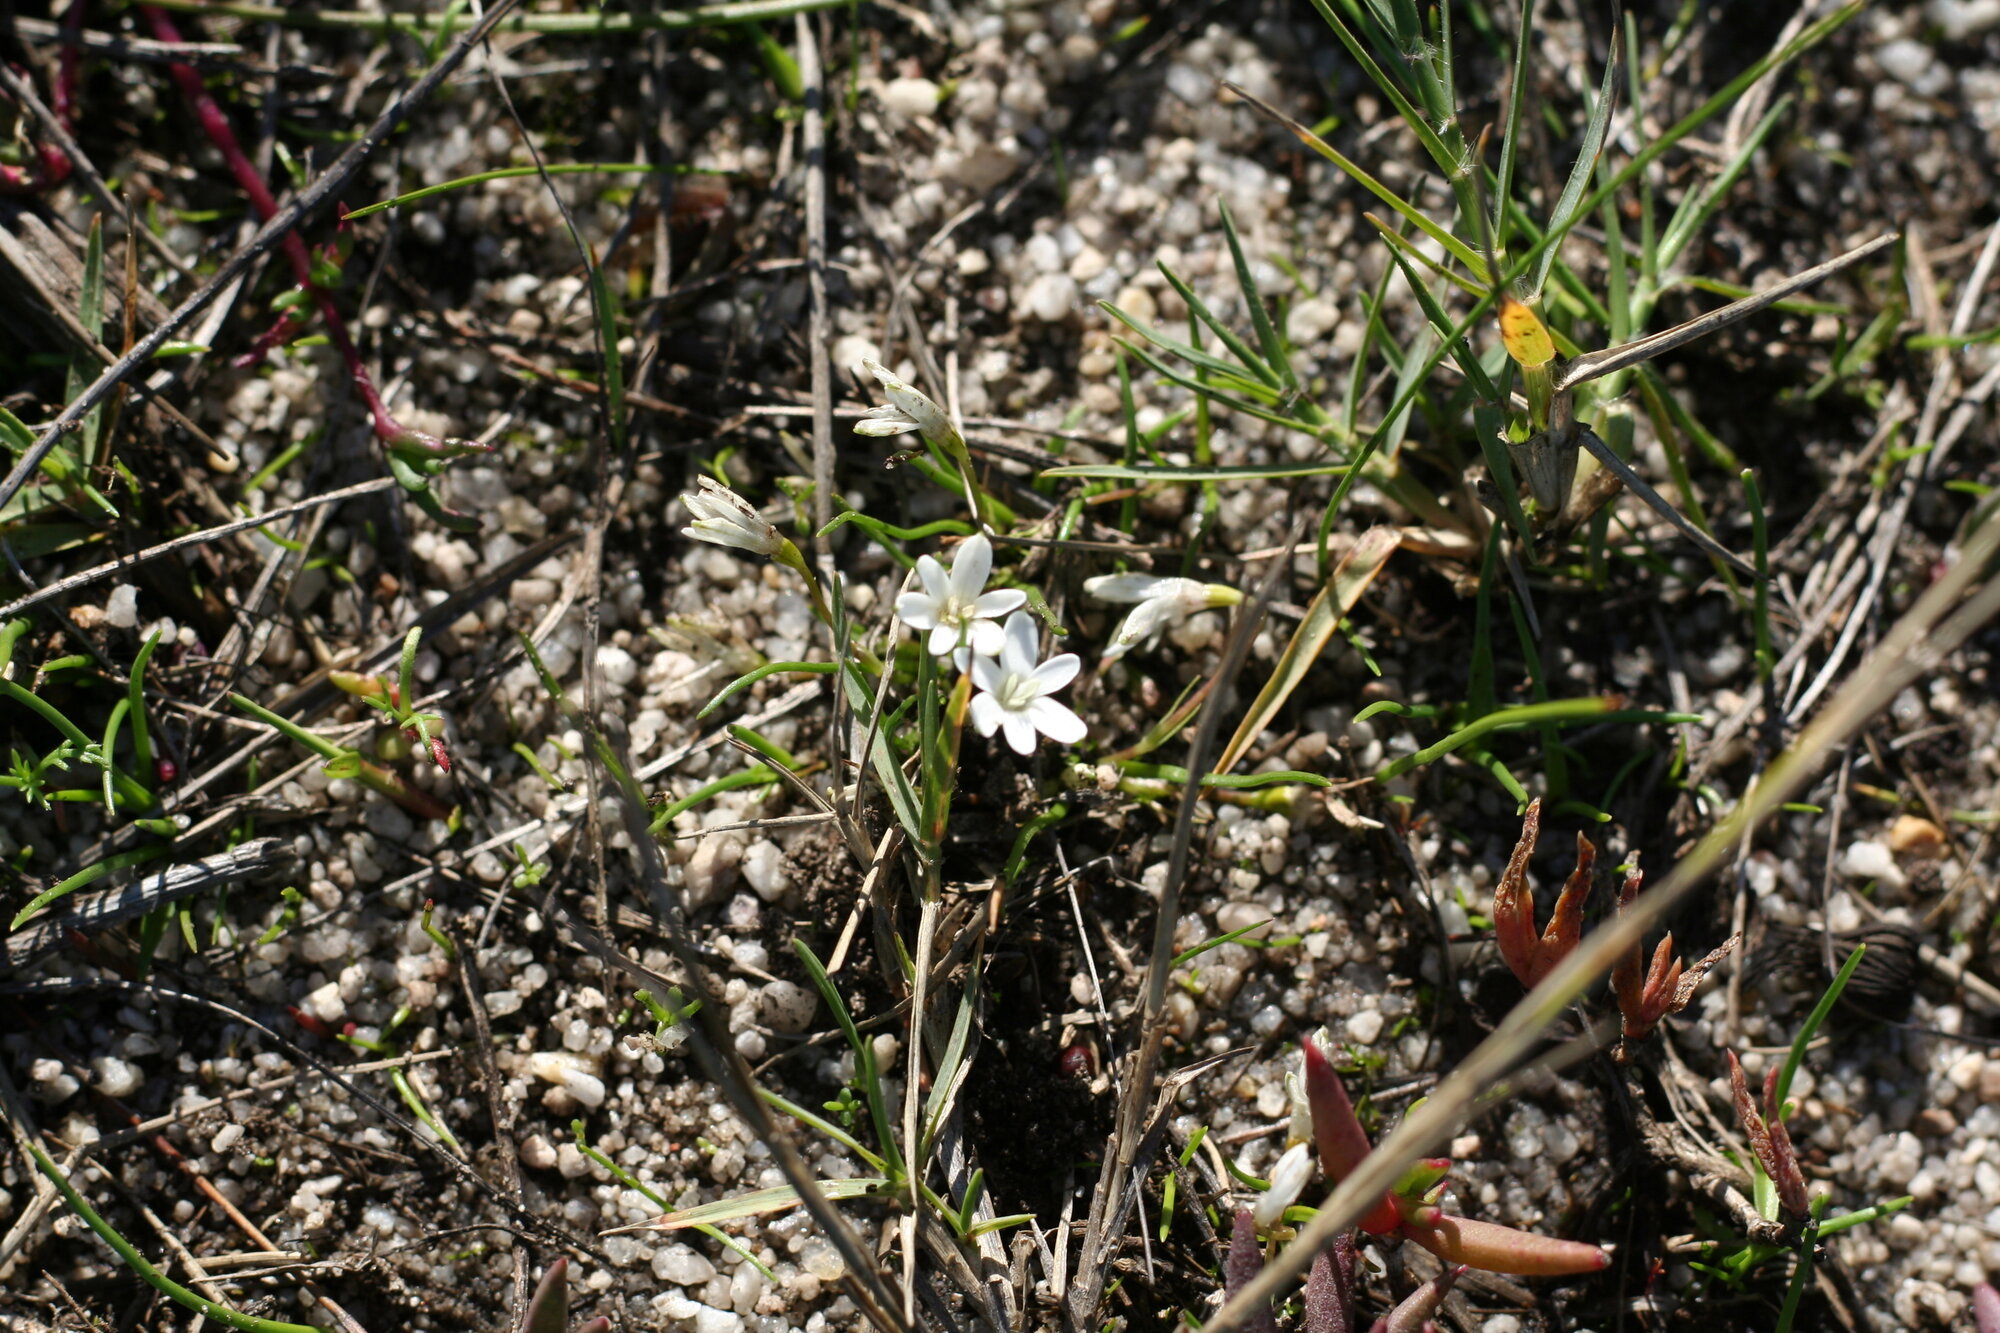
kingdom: Plantae
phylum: Tracheophyta
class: Liliopsida
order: Asparagales
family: Hypoxidaceae
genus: Pauridia
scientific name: Pauridia minuta
